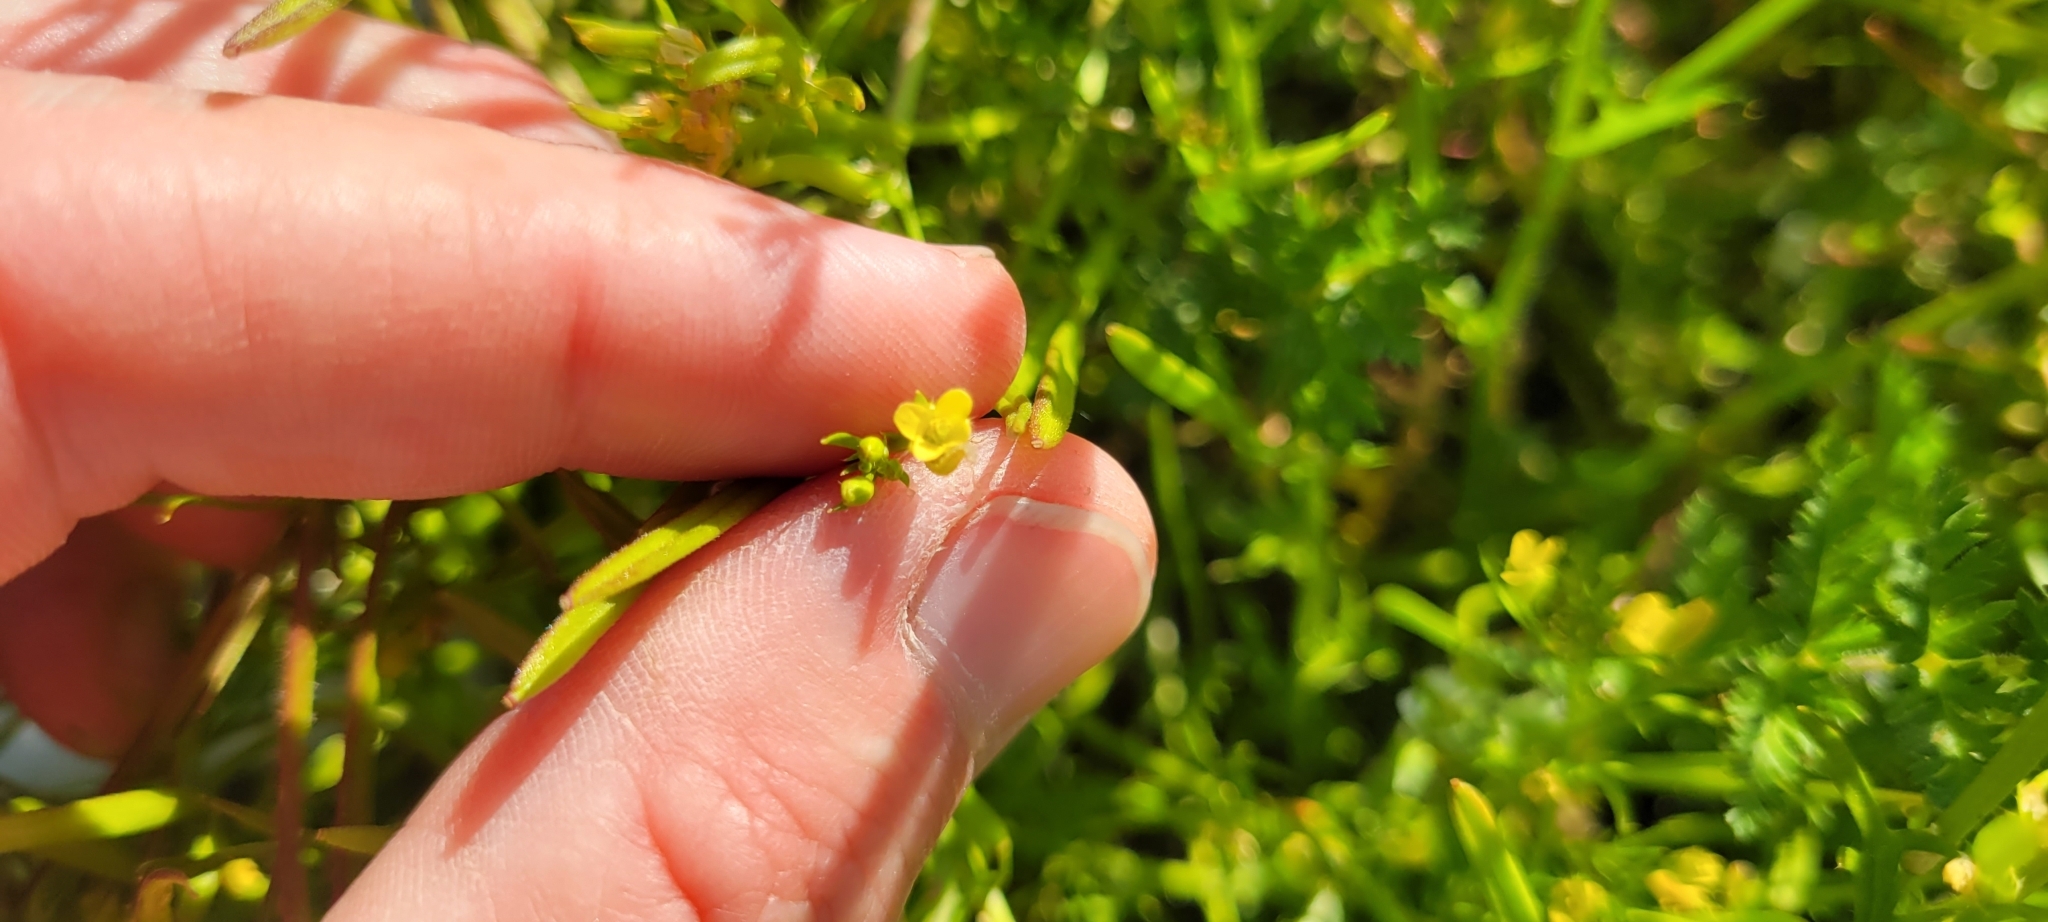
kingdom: Plantae
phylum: Tracheophyta
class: Magnoliopsida
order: Brassicales
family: Brassicaceae
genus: Tropidocarpum
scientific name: Tropidocarpum gracile
